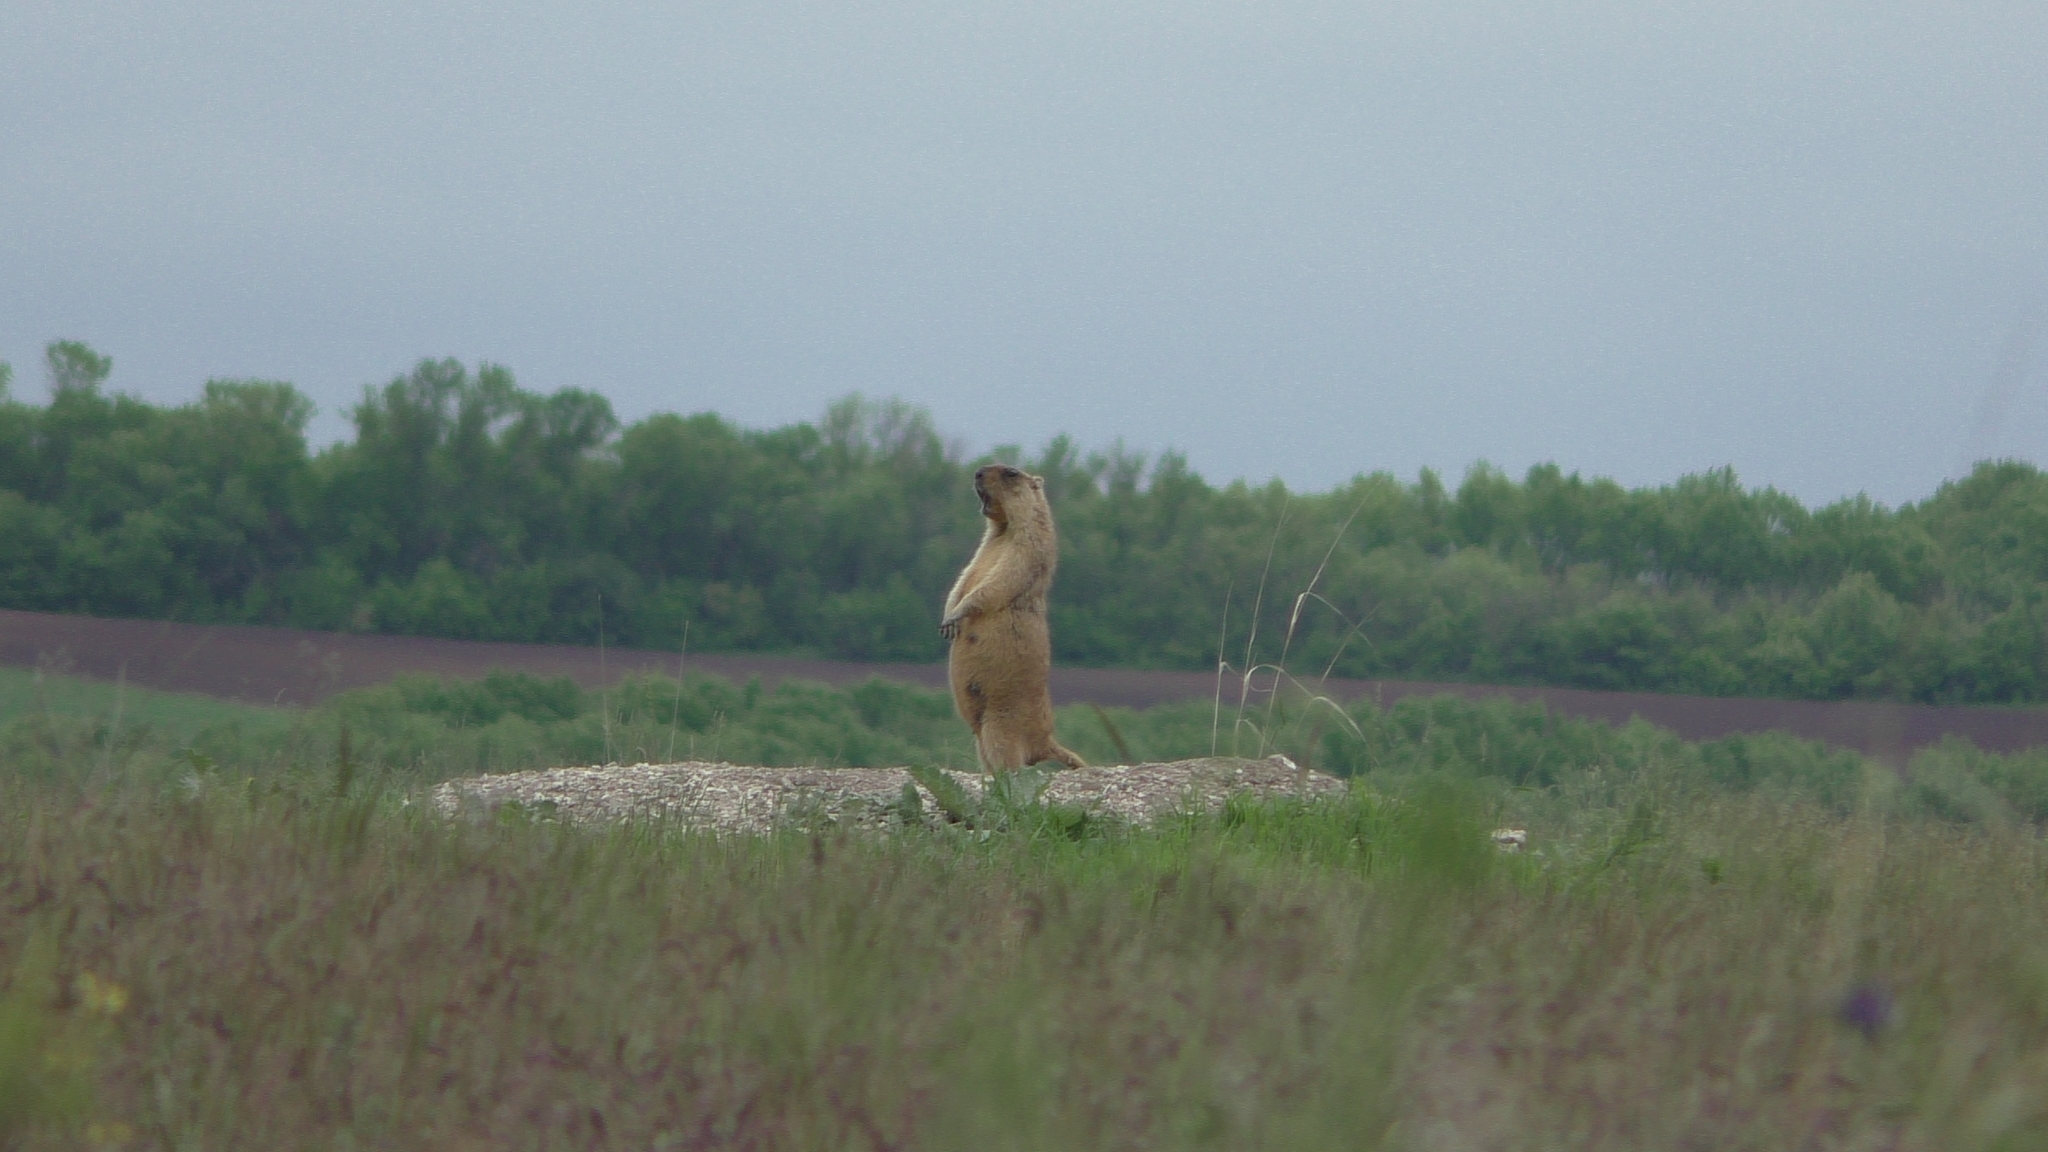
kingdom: Animalia
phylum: Chordata
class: Mammalia
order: Rodentia
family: Sciuridae
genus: Marmota
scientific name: Marmota bobak
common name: Bobak marmot
